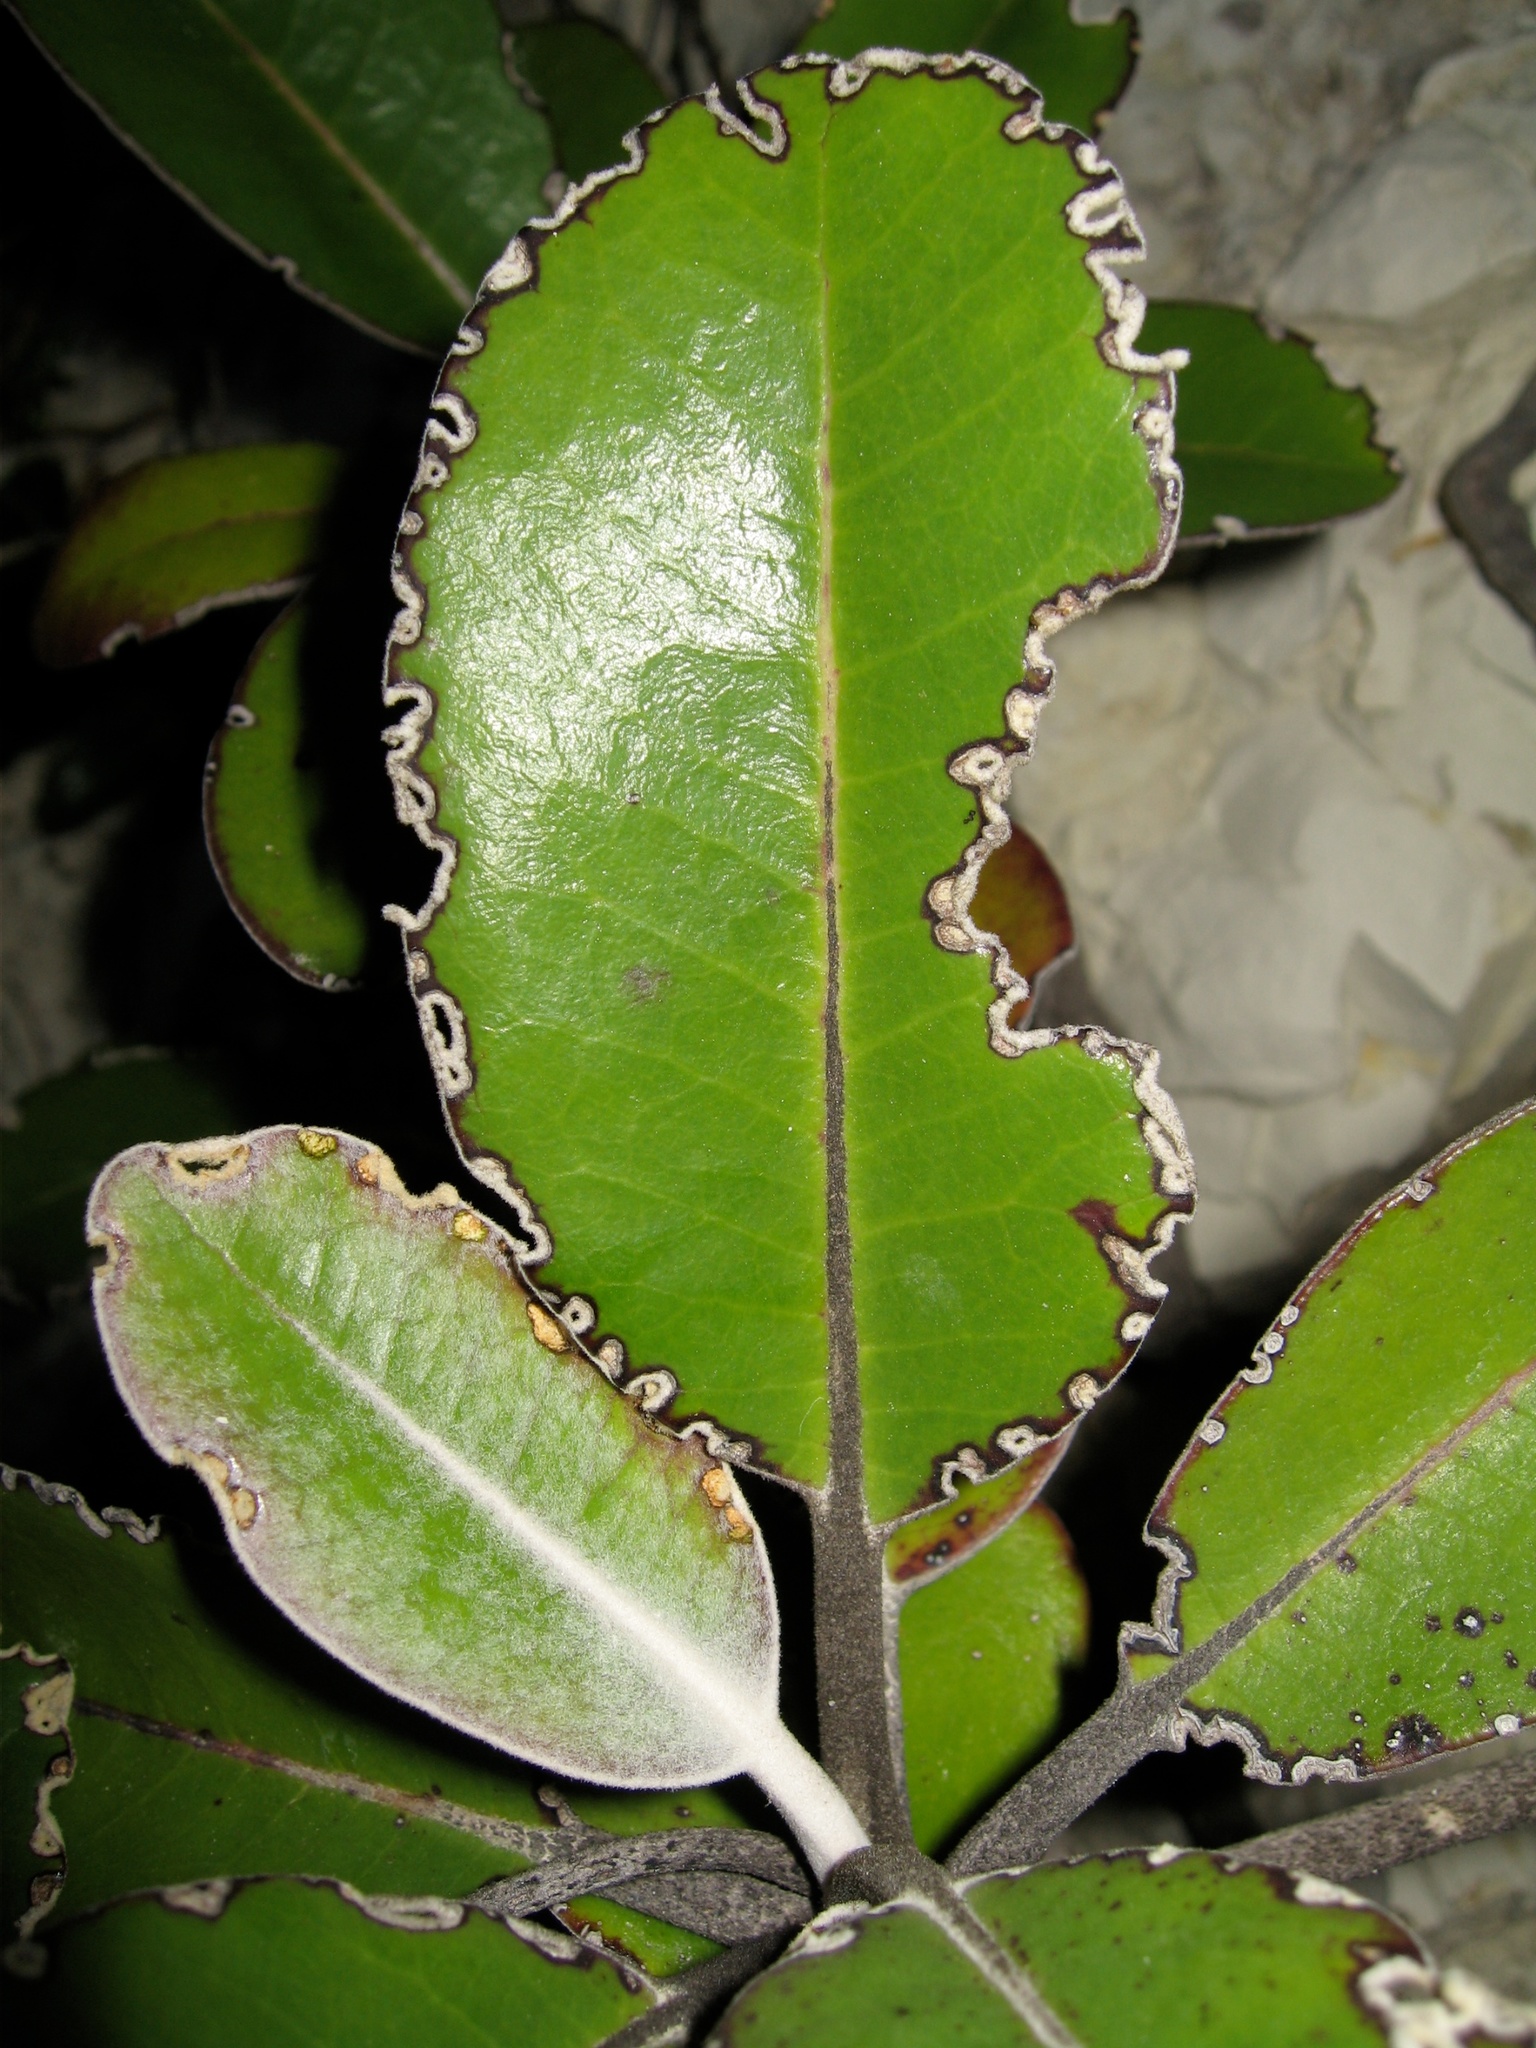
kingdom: Plantae
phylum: Tracheophyta
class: Magnoliopsida
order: Asterales
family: Asteraceae
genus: Pachystegia
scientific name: Pachystegia insignis
